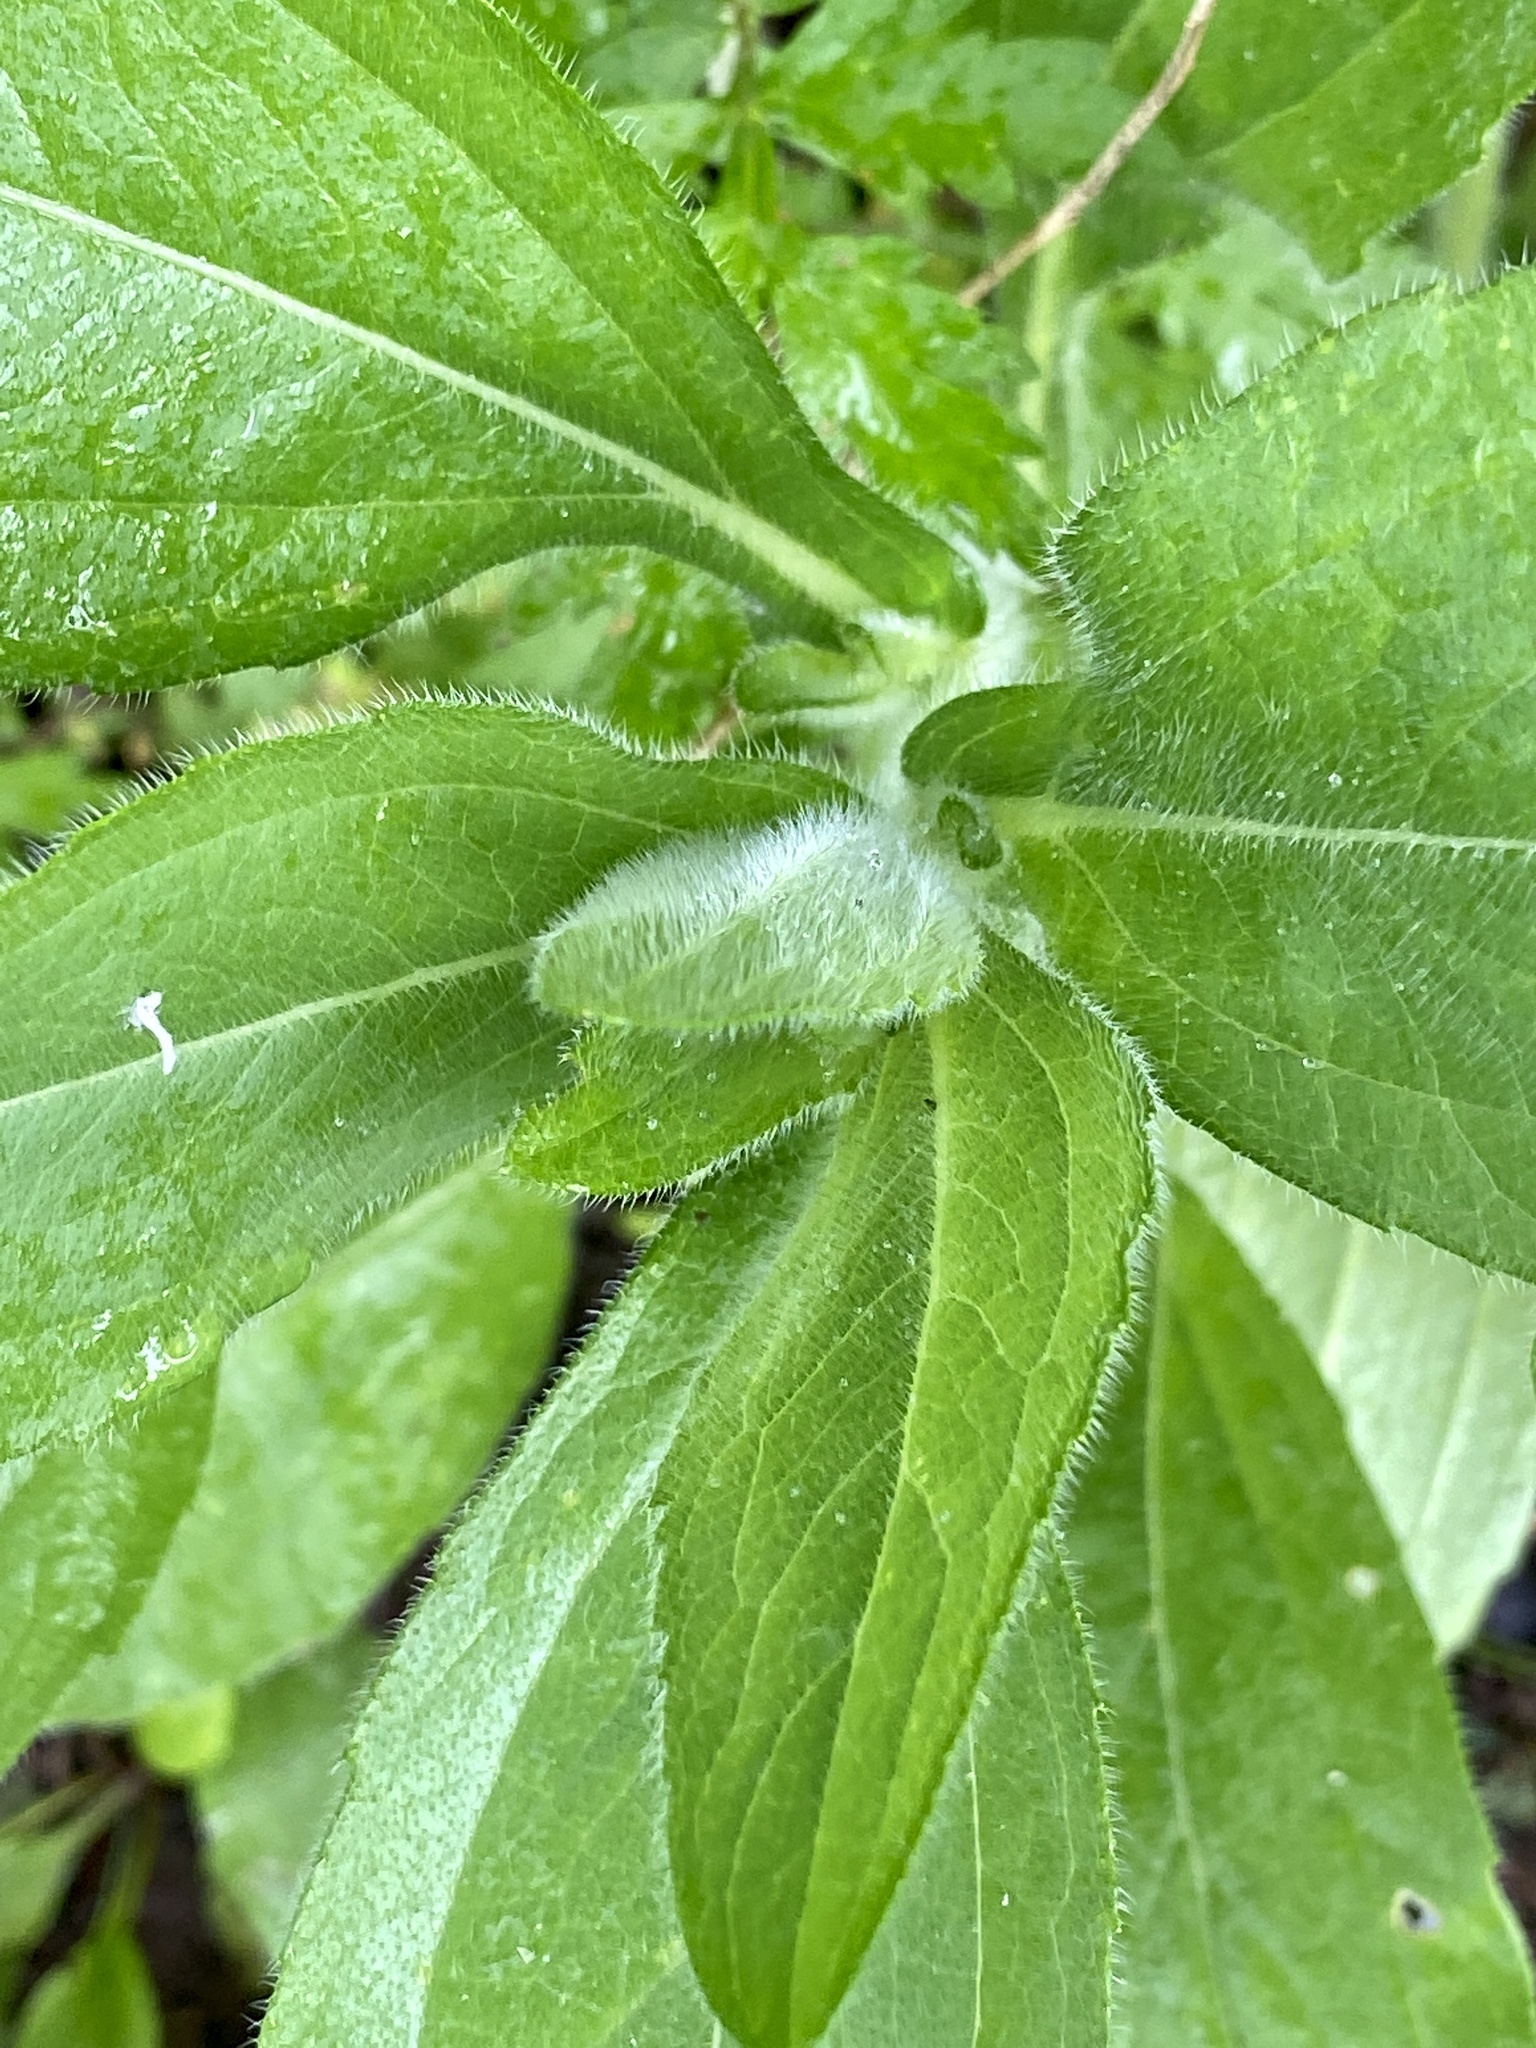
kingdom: Plantae
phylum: Tracheophyta
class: Magnoliopsida
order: Asterales
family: Asteraceae
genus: Rudbeckia
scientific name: Rudbeckia hirta
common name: Black-eyed-susan
